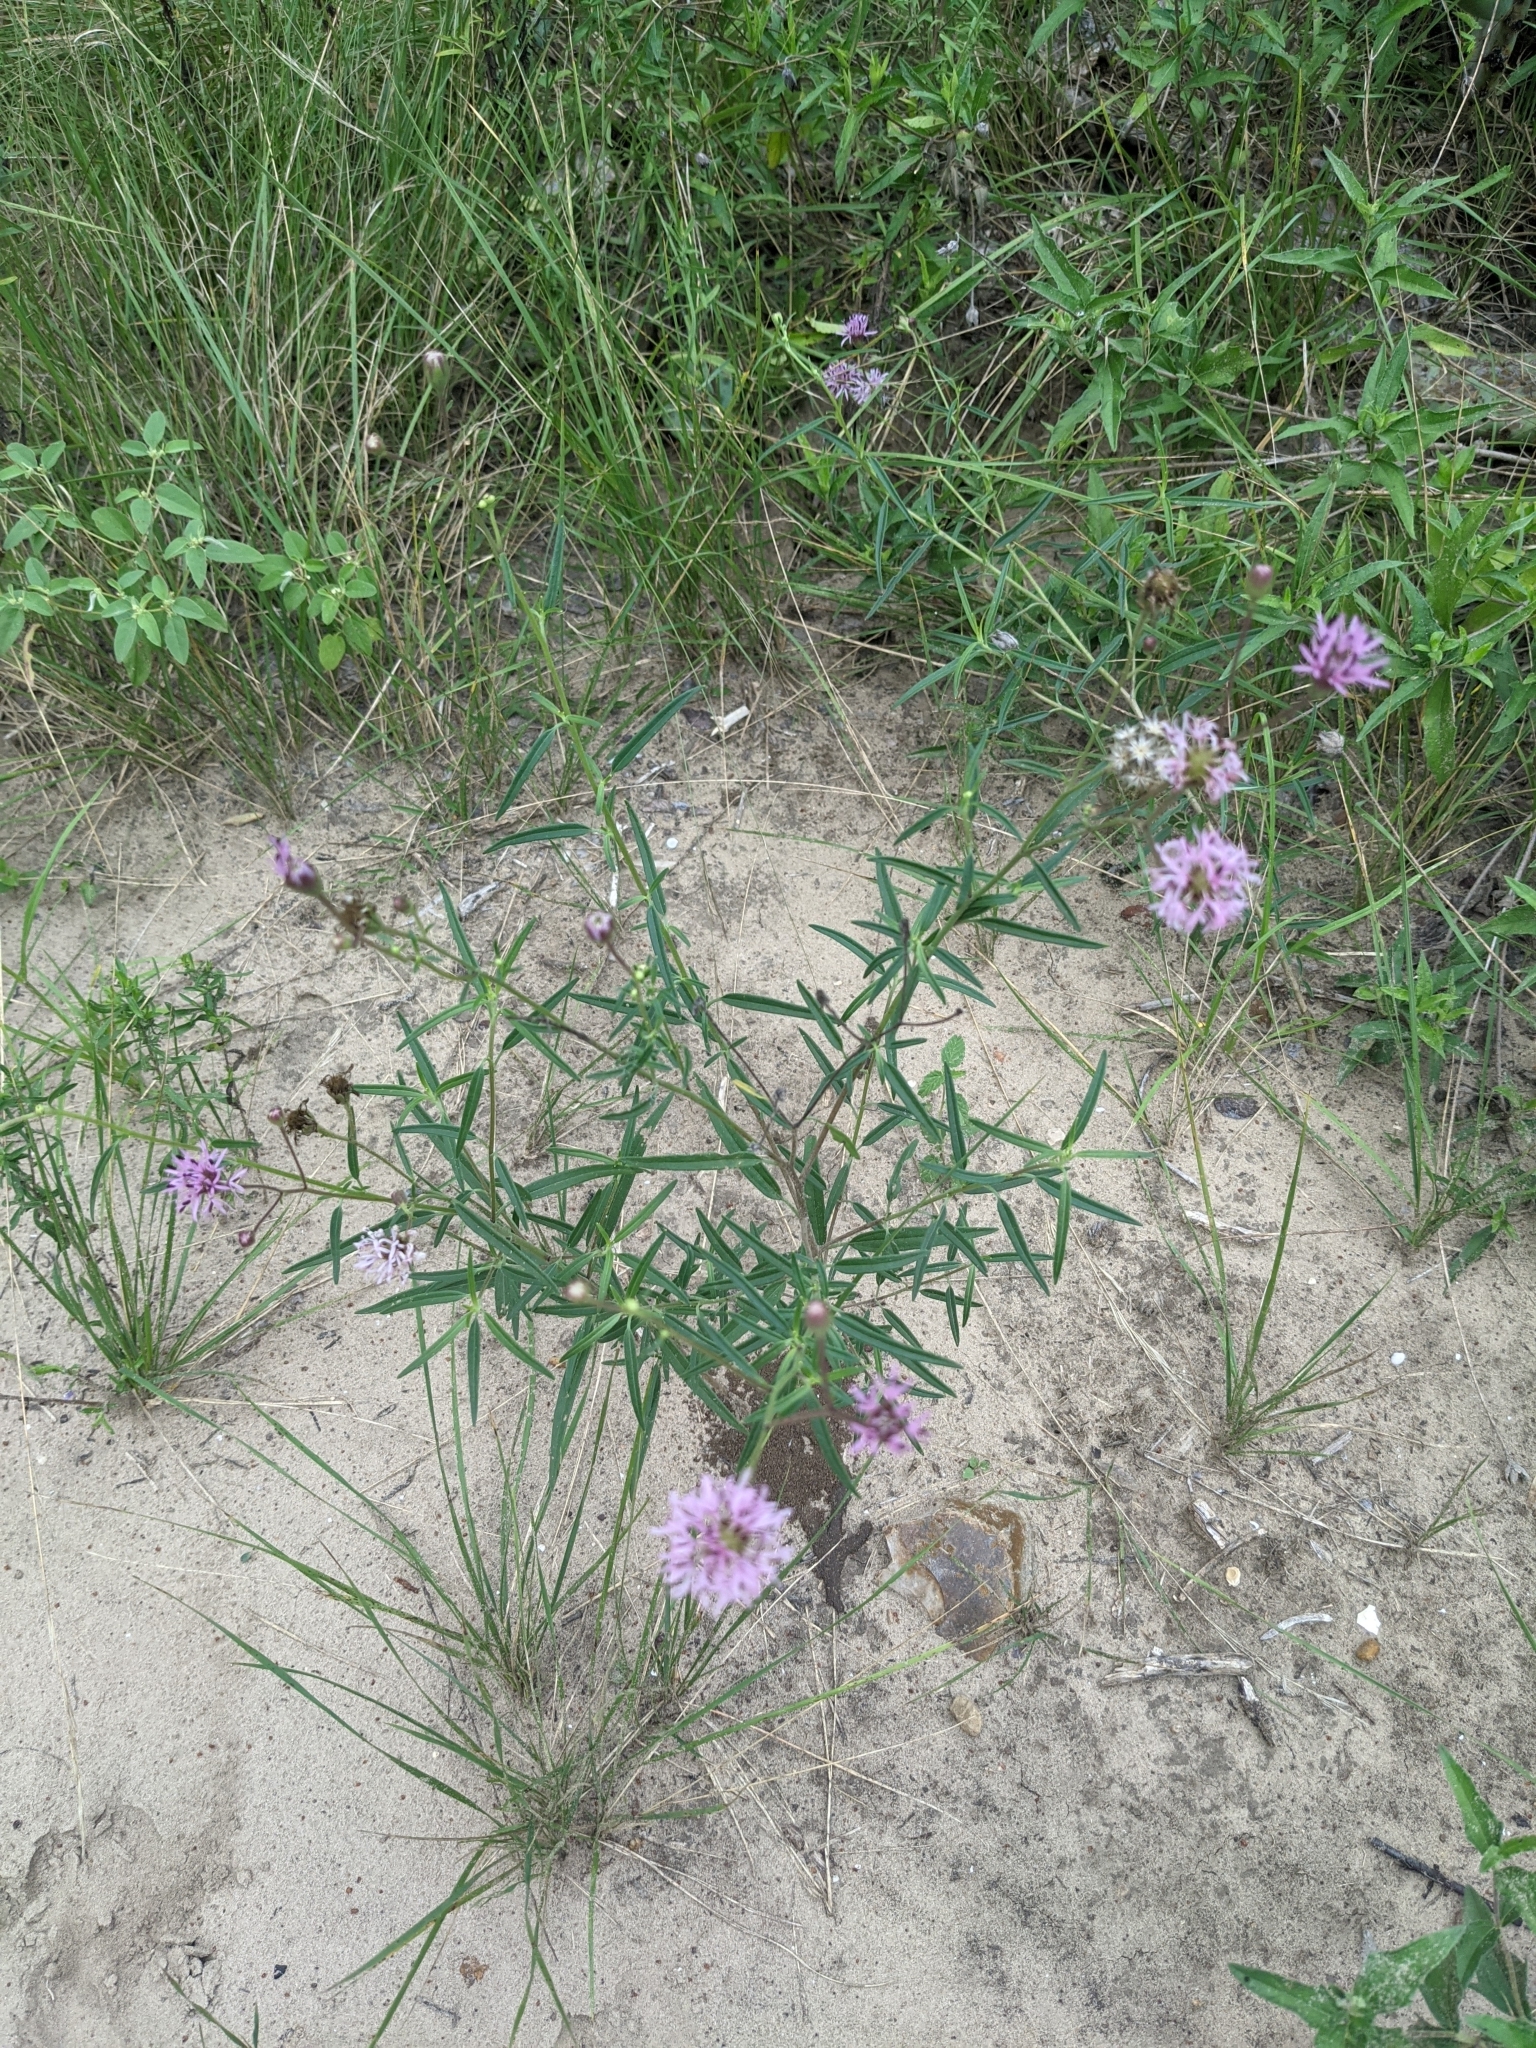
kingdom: Plantae
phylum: Tracheophyta
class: Magnoliopsida
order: Asterales
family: Asteraceae
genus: Palafoxia
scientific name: Palafoxia rosea
